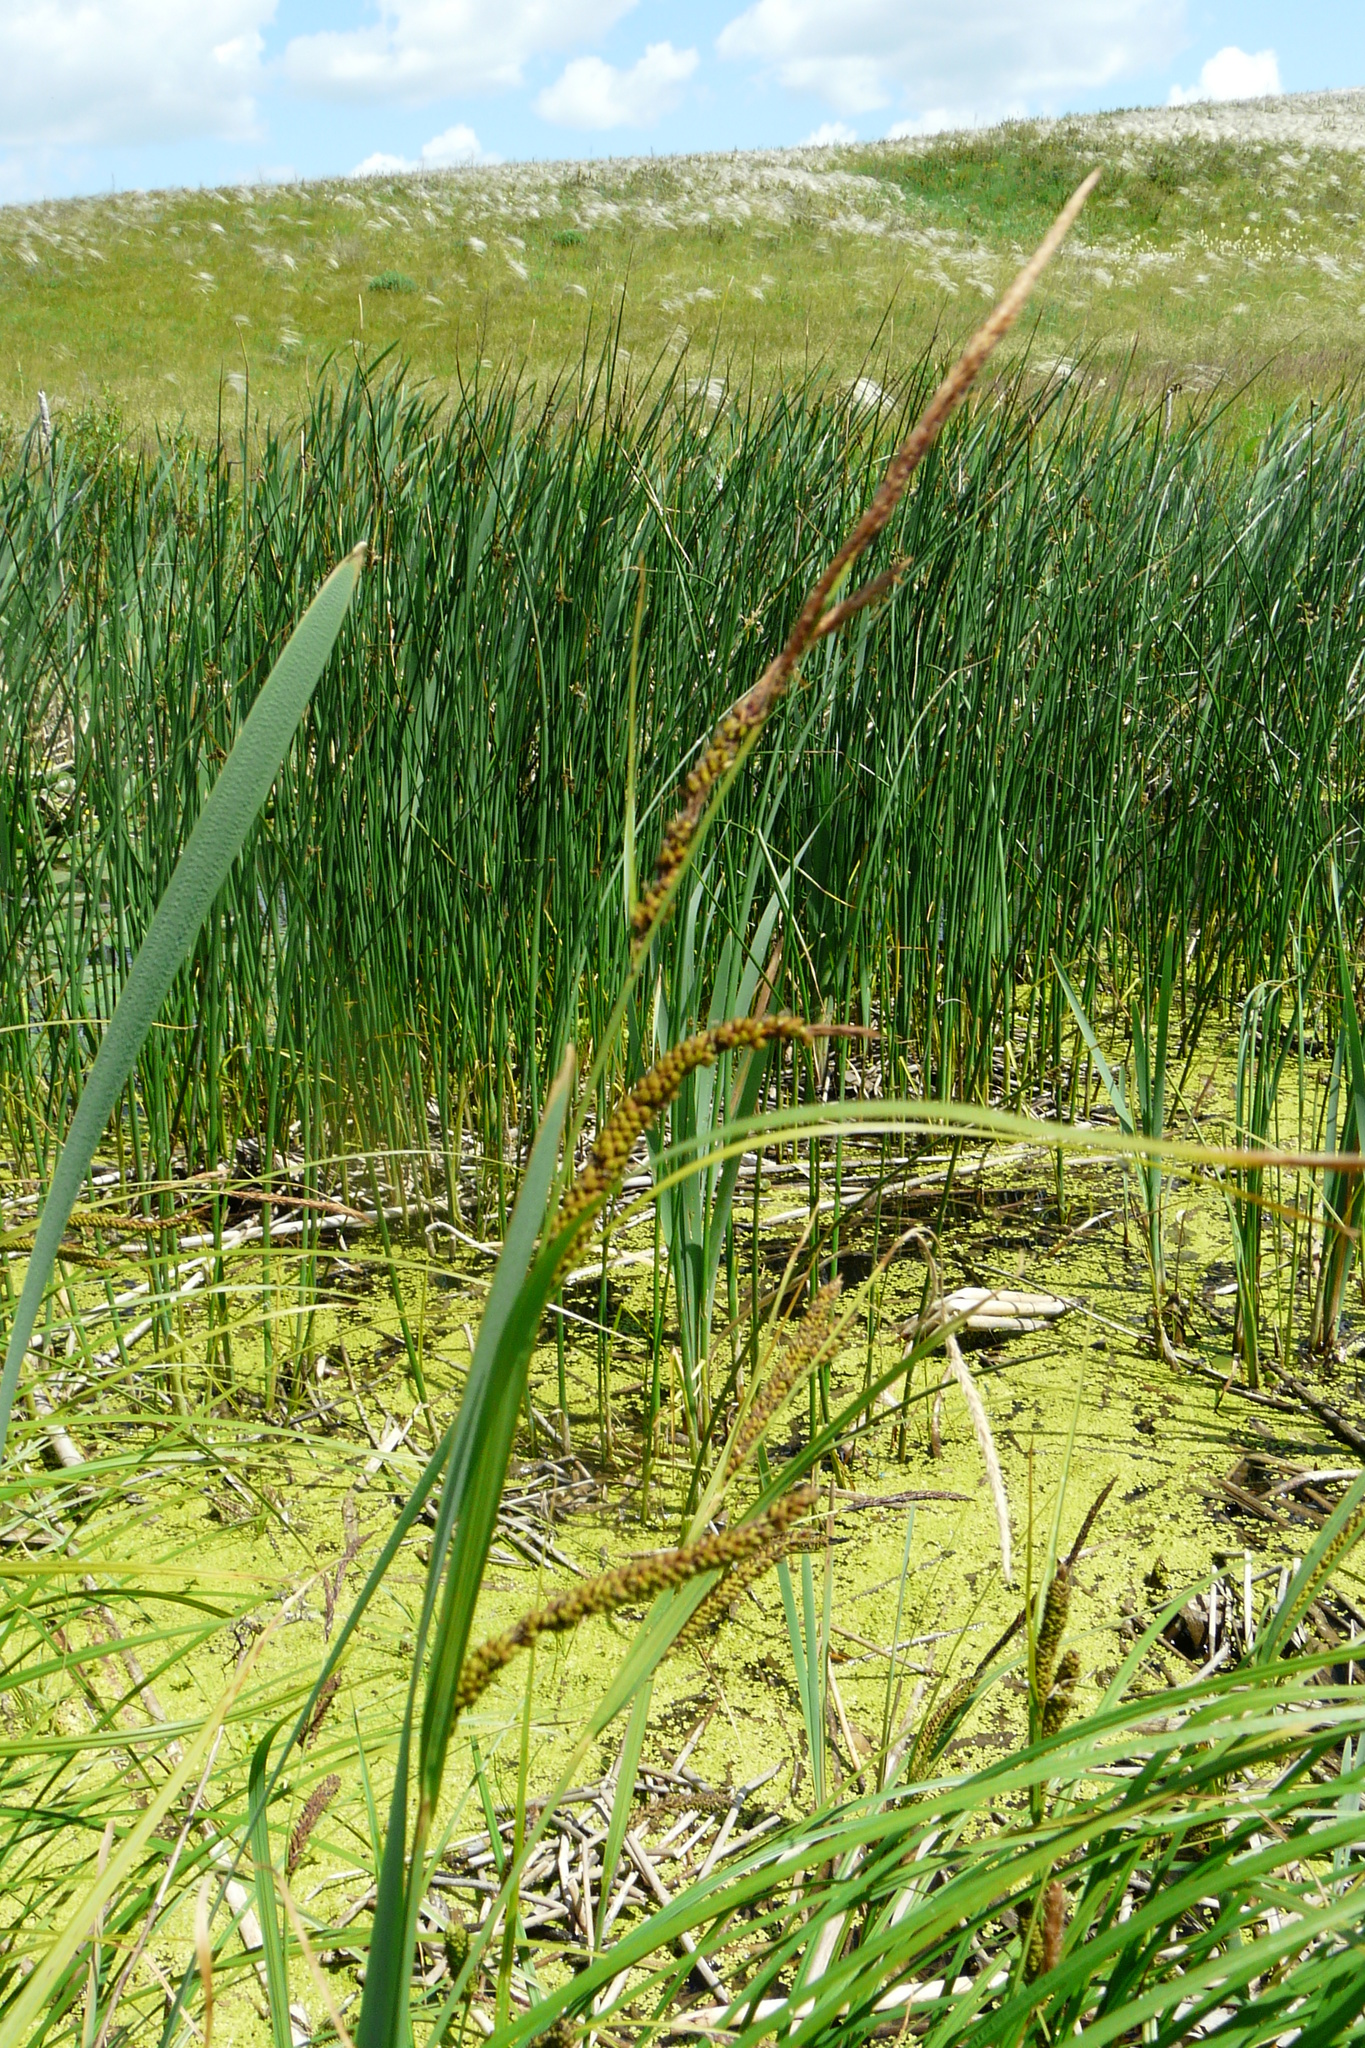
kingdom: Plantae
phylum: Tracheophyta
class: Liliopsida
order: Poales
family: Cyperaceae
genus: Carex
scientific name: Carex acuta
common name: Slender tufted-sedge
